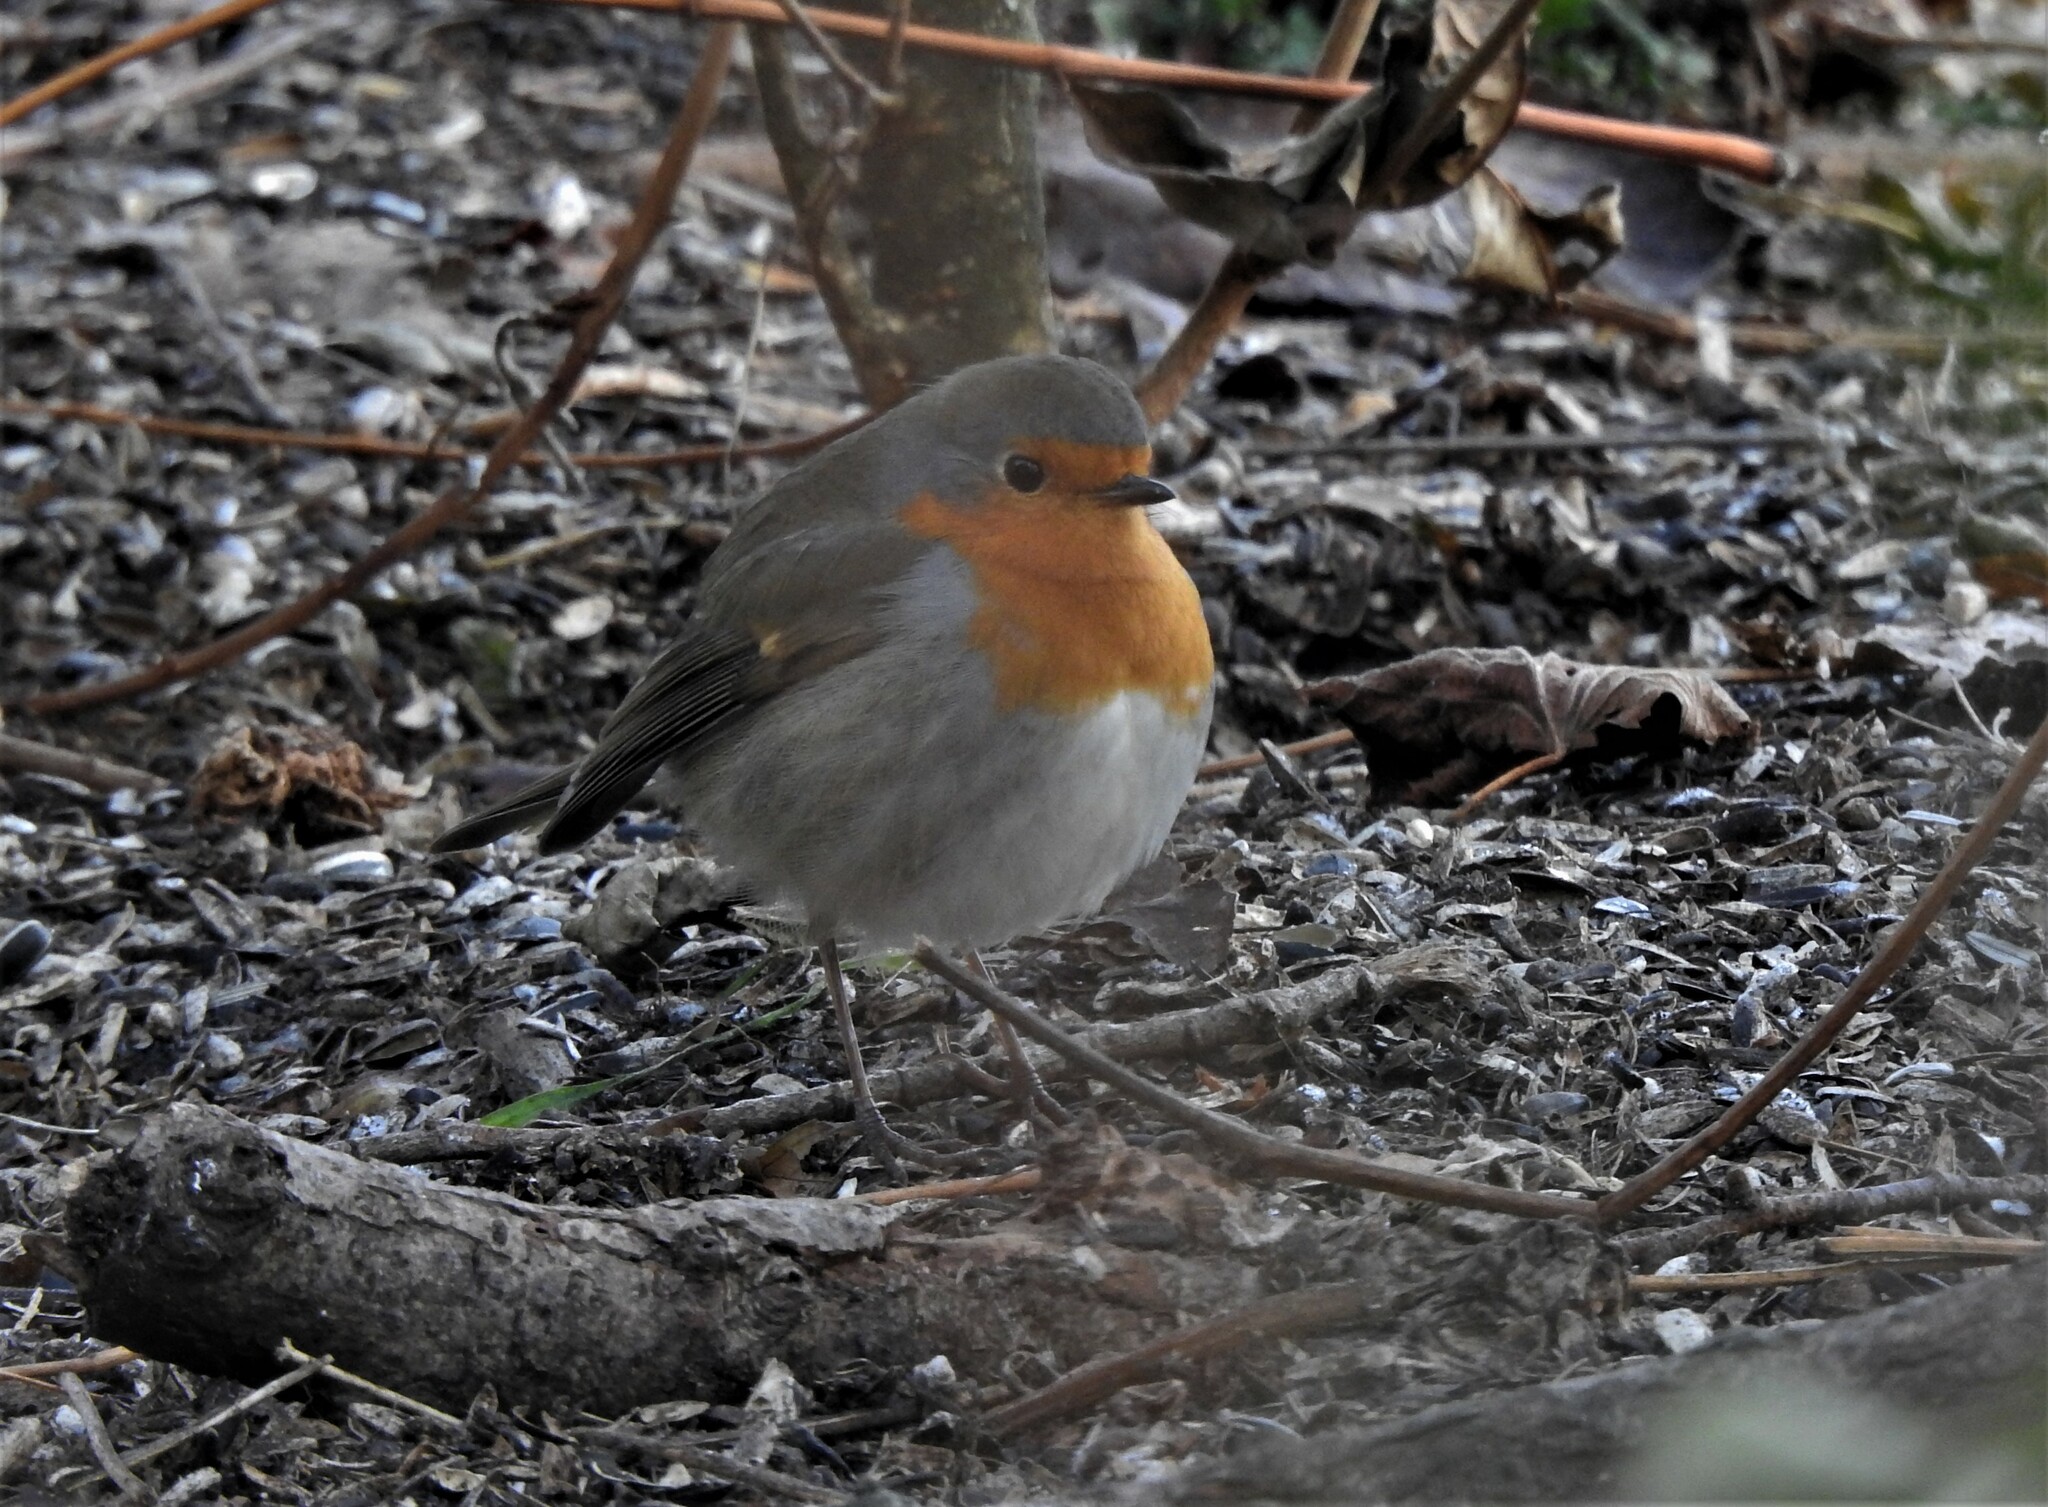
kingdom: Animalia
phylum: Chordata
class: Aves
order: Passeriformes
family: Muscicapidae
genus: Erithacus
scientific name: Erithacus rubecula
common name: European robin
